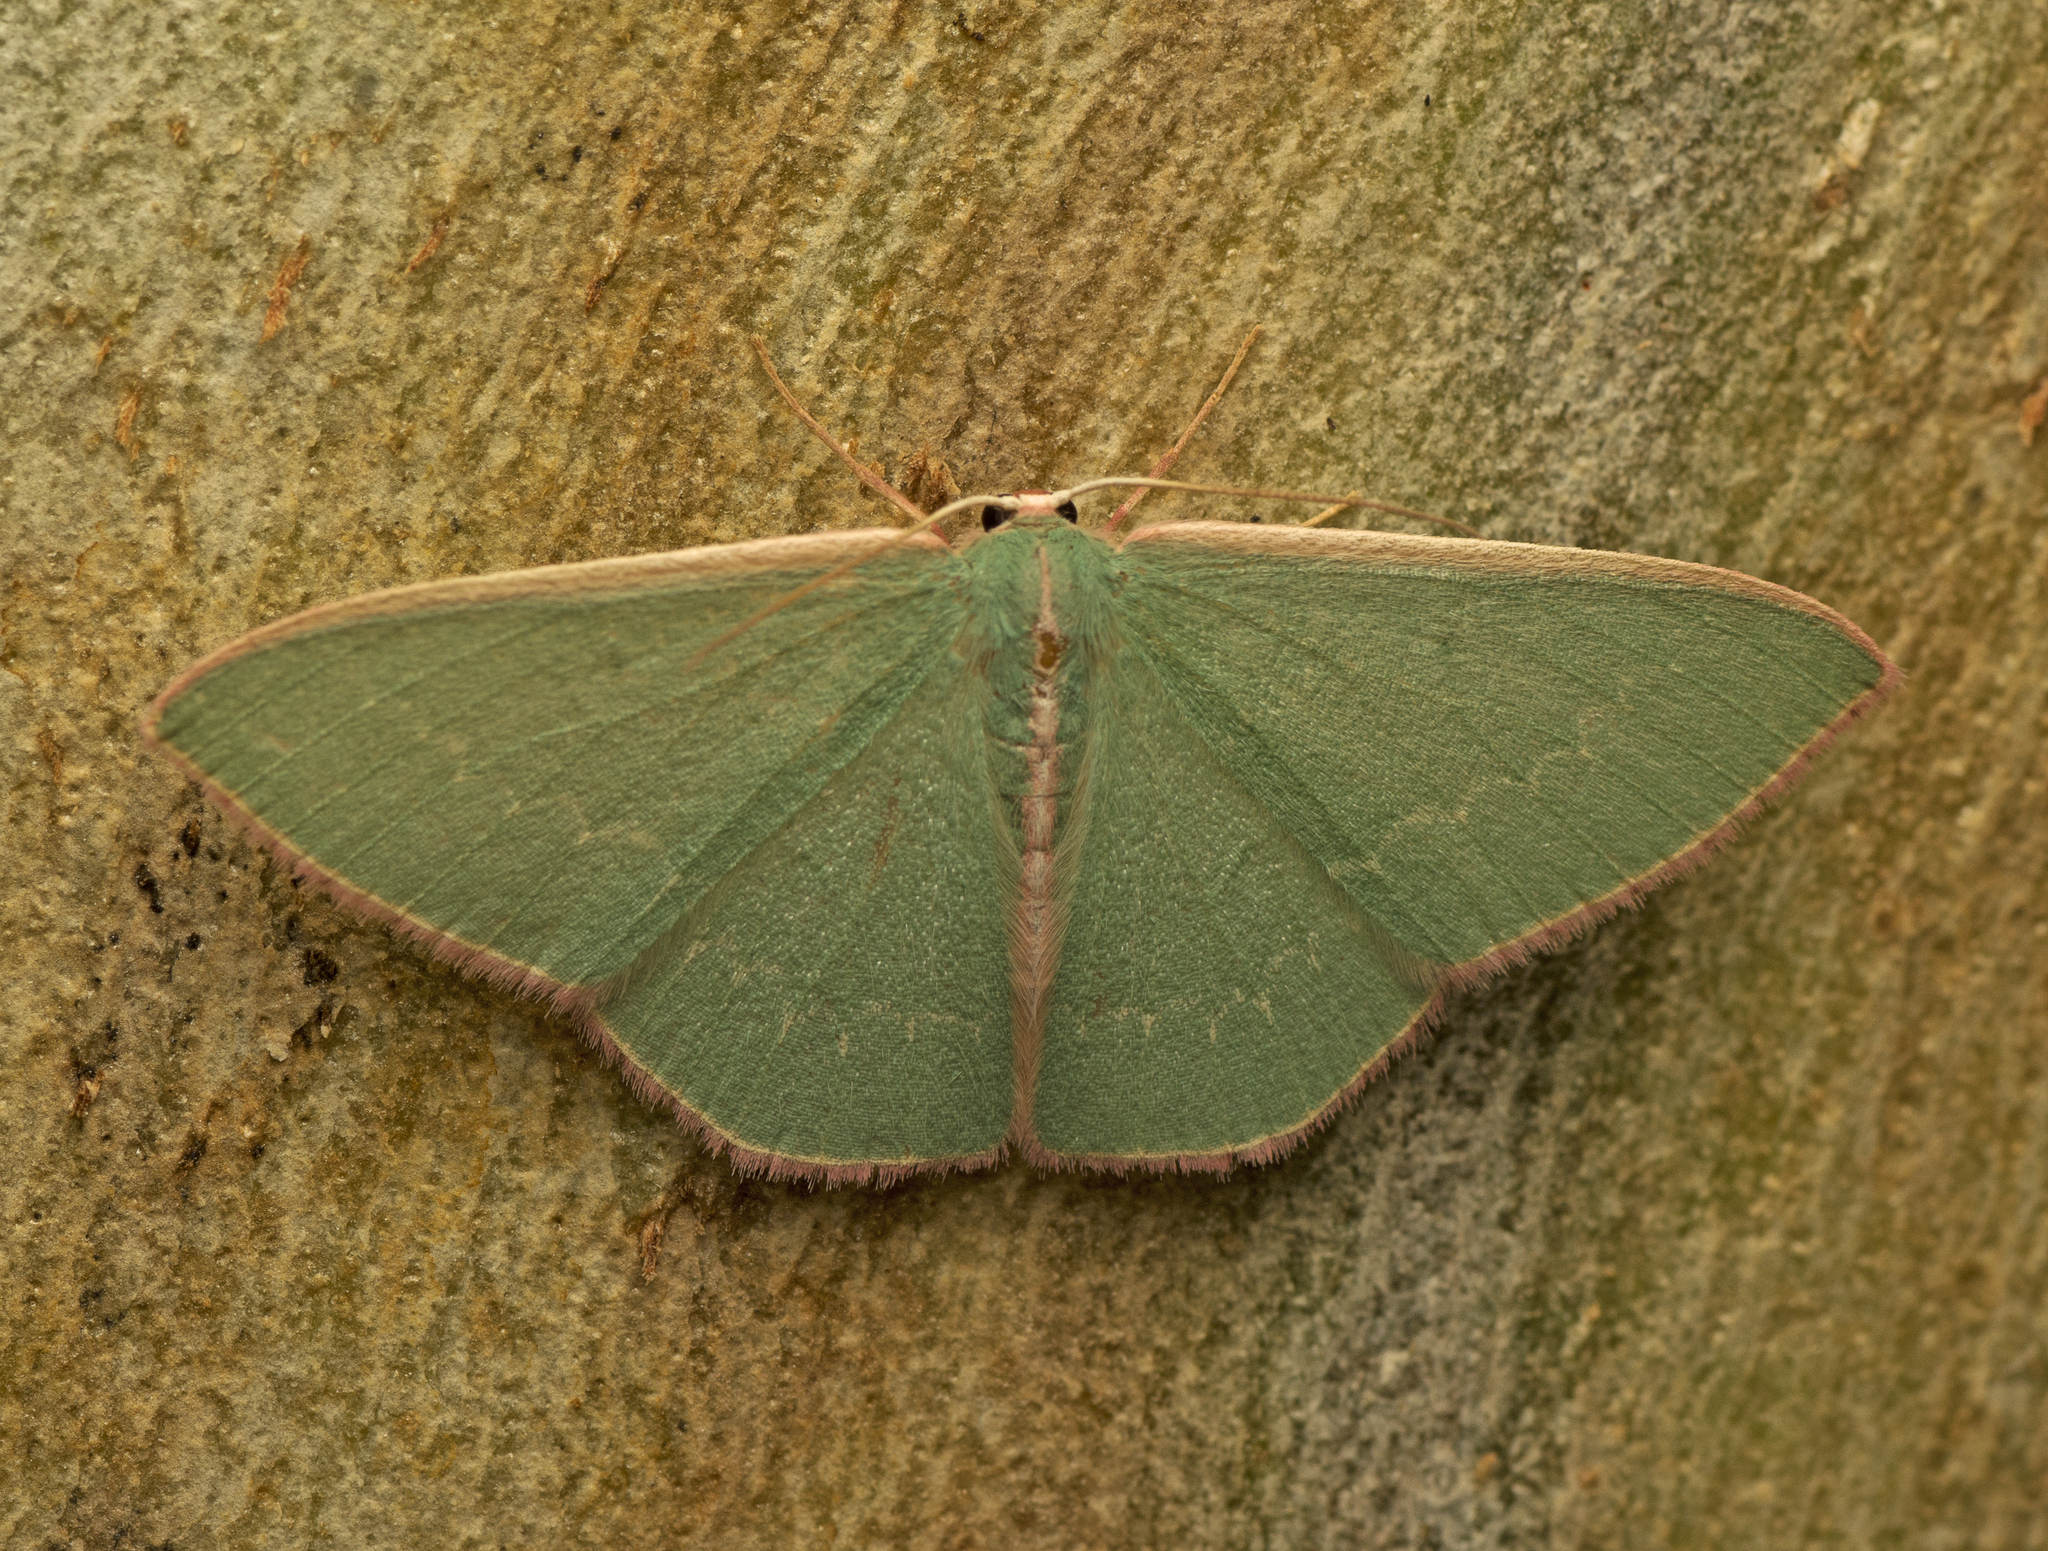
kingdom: Animalia
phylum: Arthropoda
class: Insecta
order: Lepidoptera
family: Geometridae
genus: Chlorocoma
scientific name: Chlorocoma dichloraria
